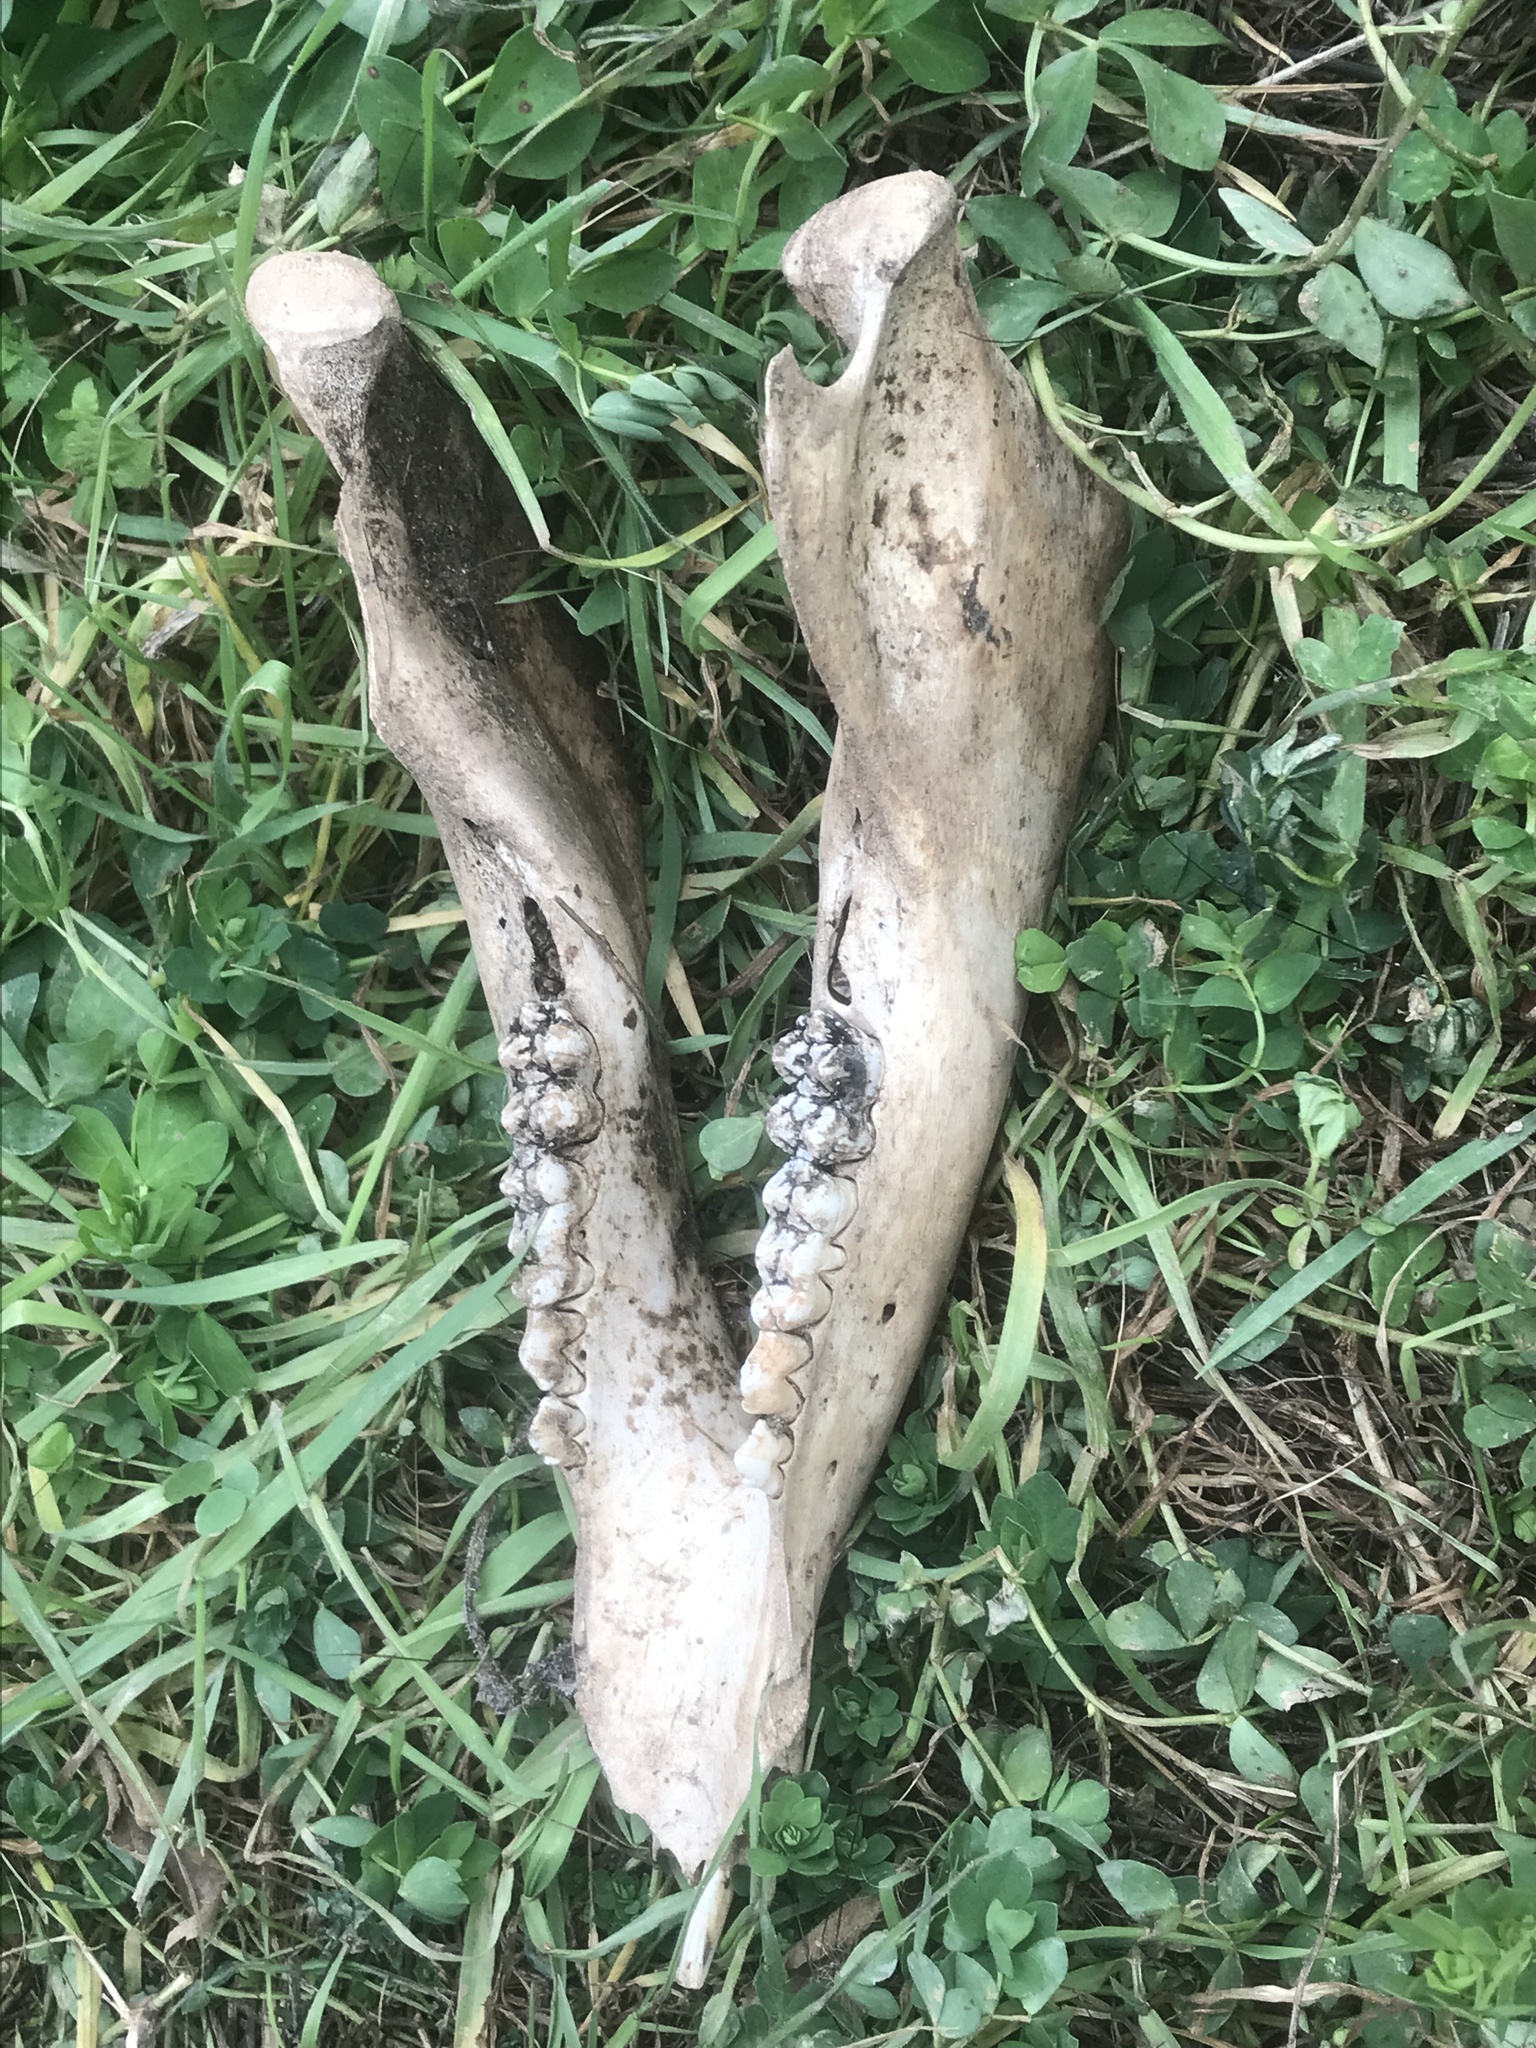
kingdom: Animalia
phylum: Chordata
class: Mammalia
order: Artiodactyla
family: Suidae
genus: Sus
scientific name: Sus scrofa
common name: Wild boar
